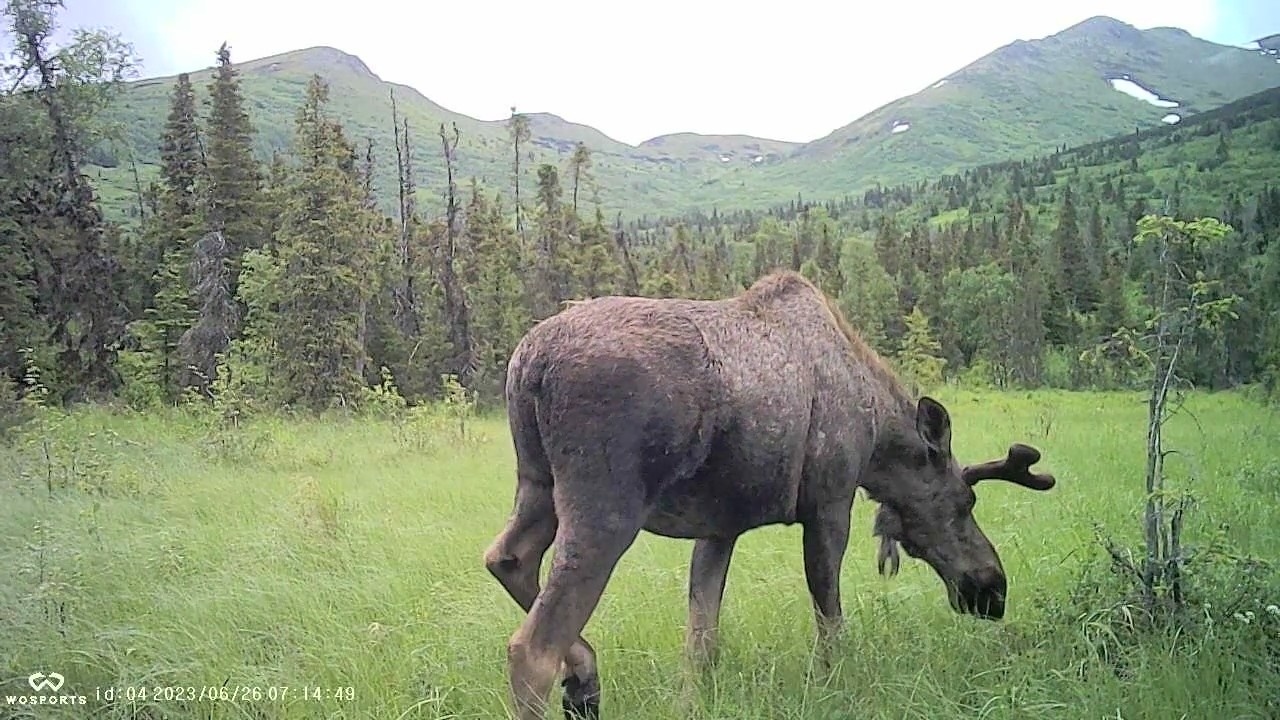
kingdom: Animalia
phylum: Chordata
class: Mammalia
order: Artiodactyla
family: Cervidae
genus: Alces
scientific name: Alces alces
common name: Moose
